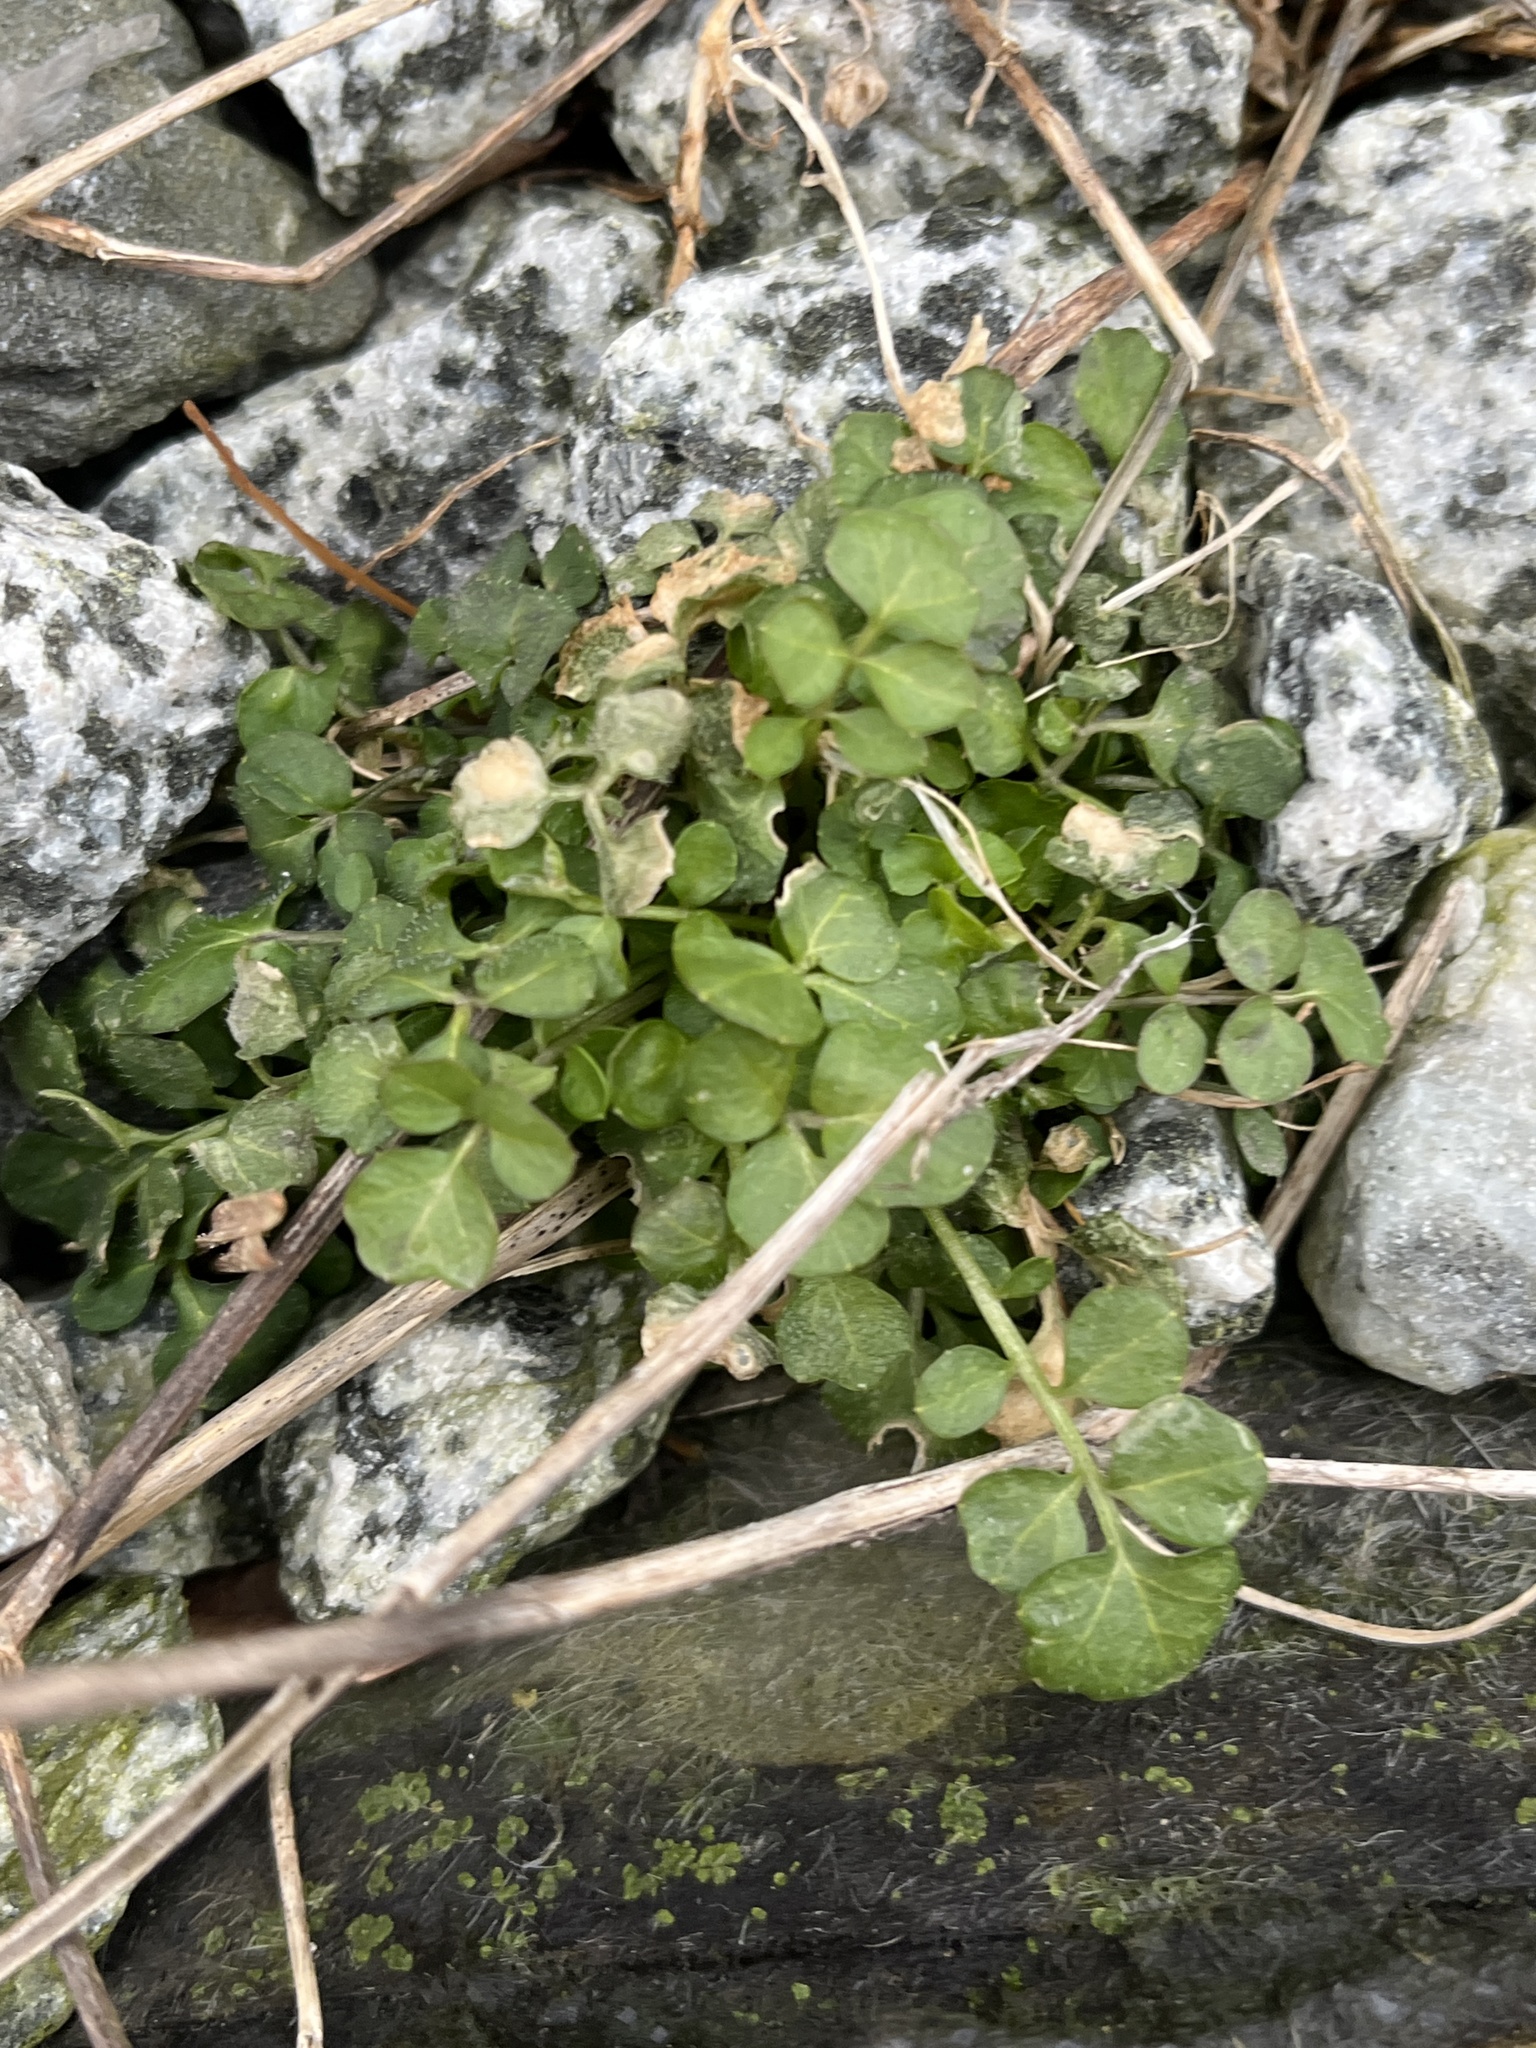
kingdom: Plantae
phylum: Tracheophyta
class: Magnoliopsida
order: Brassicales
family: Brassicaceae
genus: Cardamine
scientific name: Cardamine hirsuta
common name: Hairy bittercress
